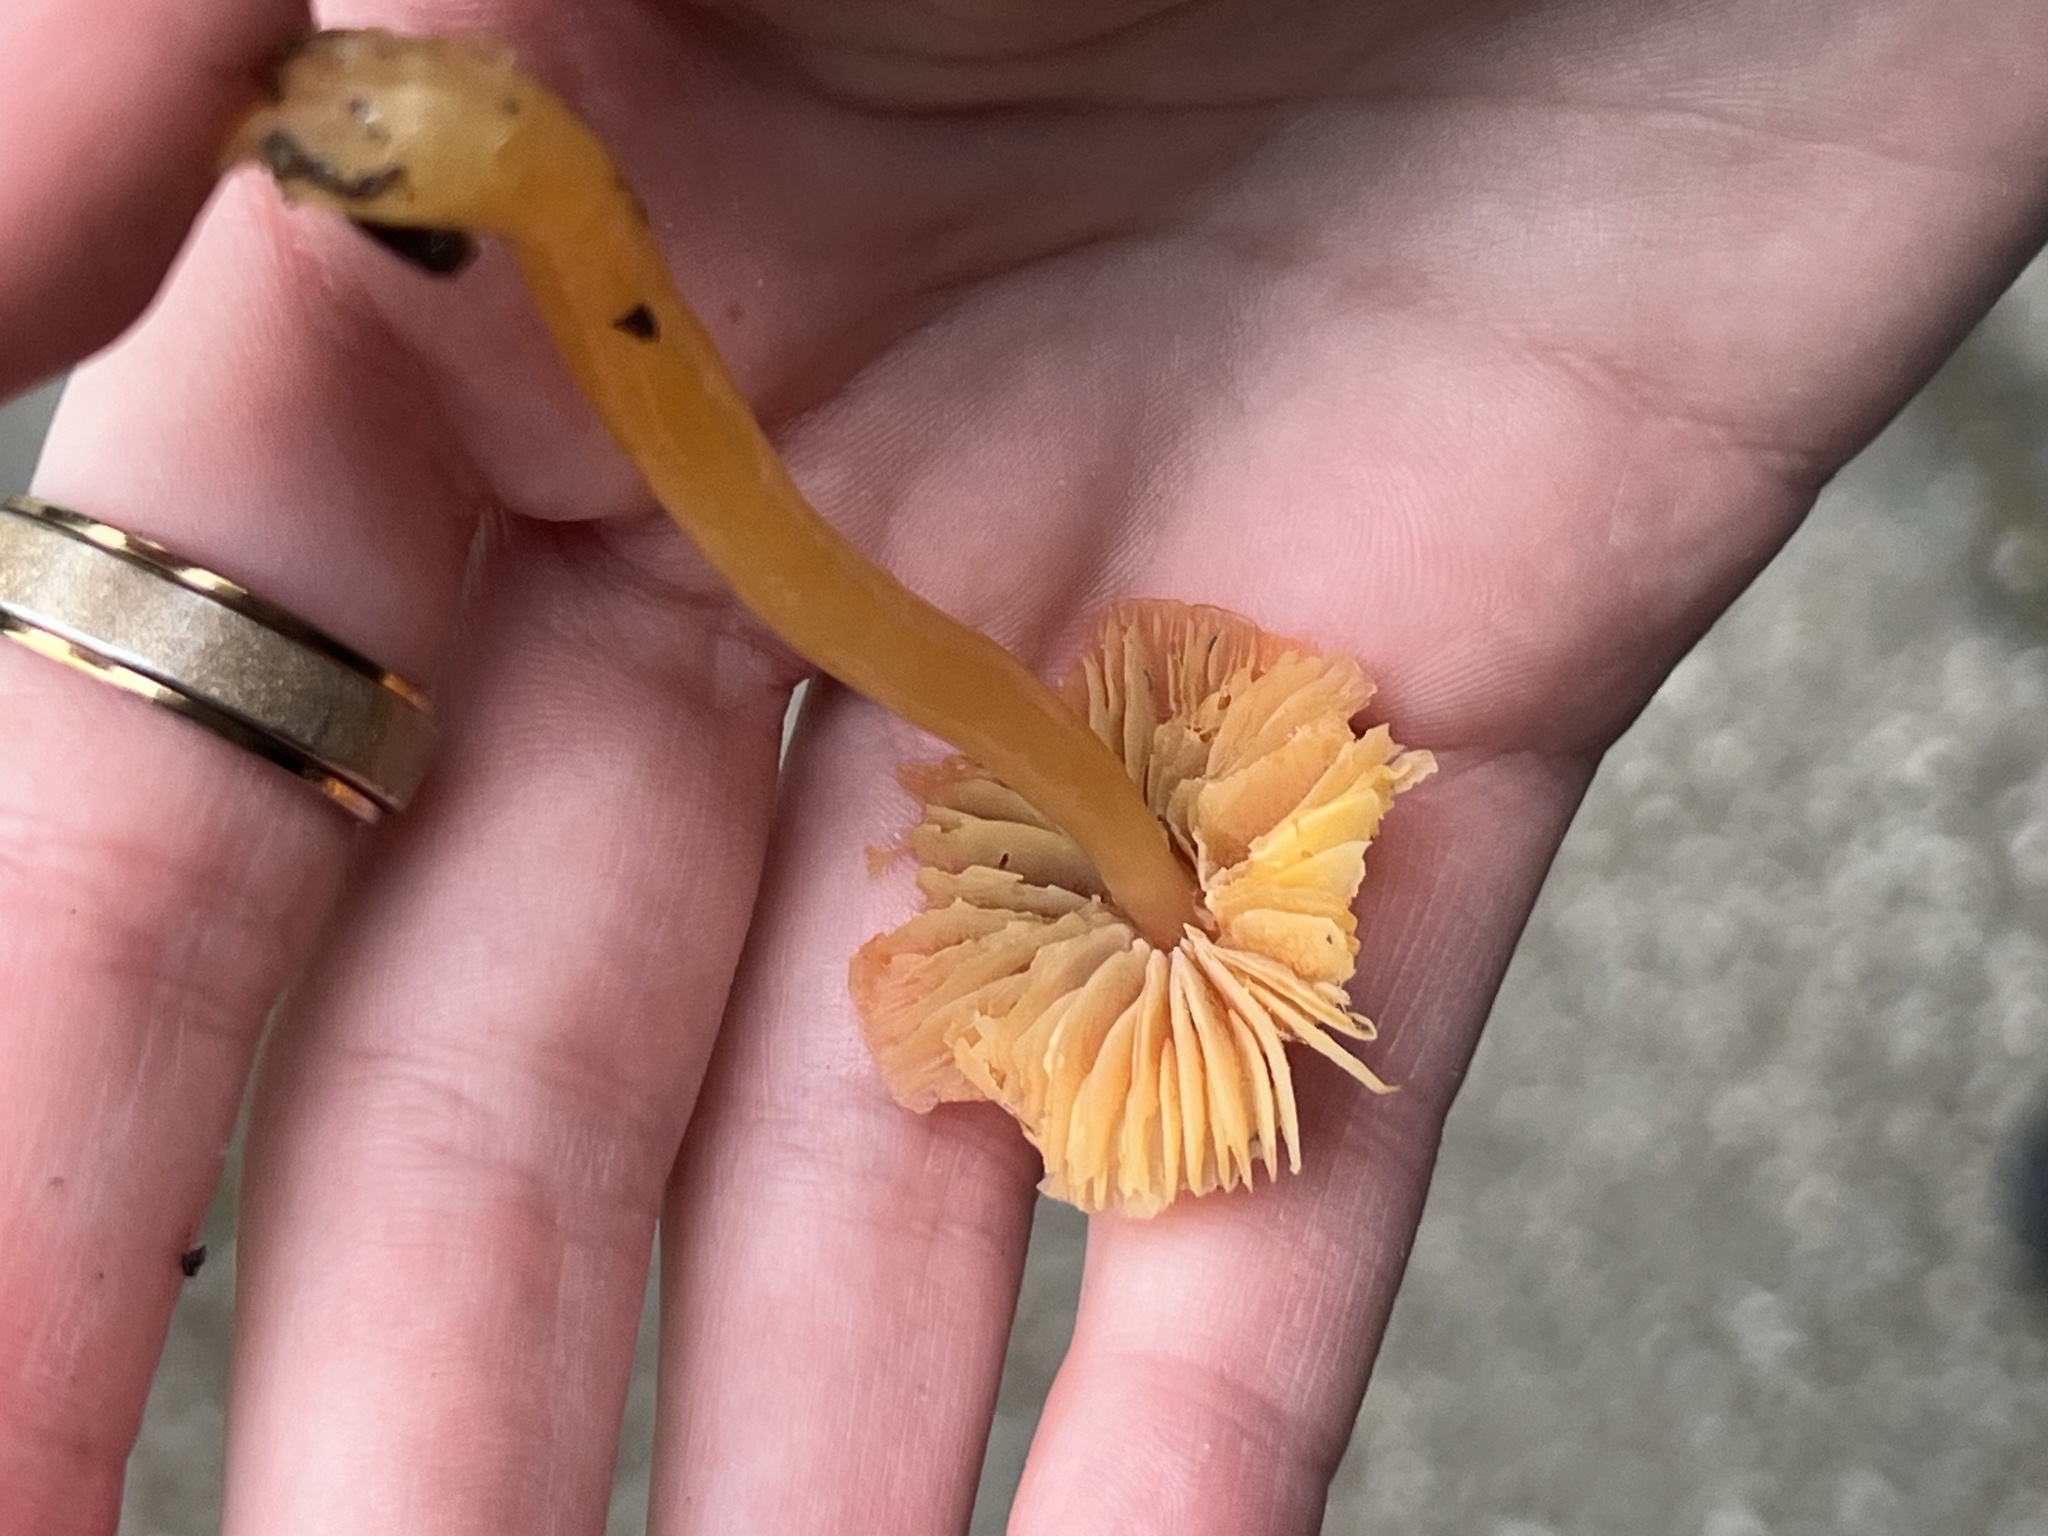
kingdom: Fungi
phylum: Basidiomycota
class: Agaricomycetes
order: Agaricales
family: Hygrophoraceae
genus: Gliophorus
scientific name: Gliophorus psittacinus
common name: Parrot wax-cap
